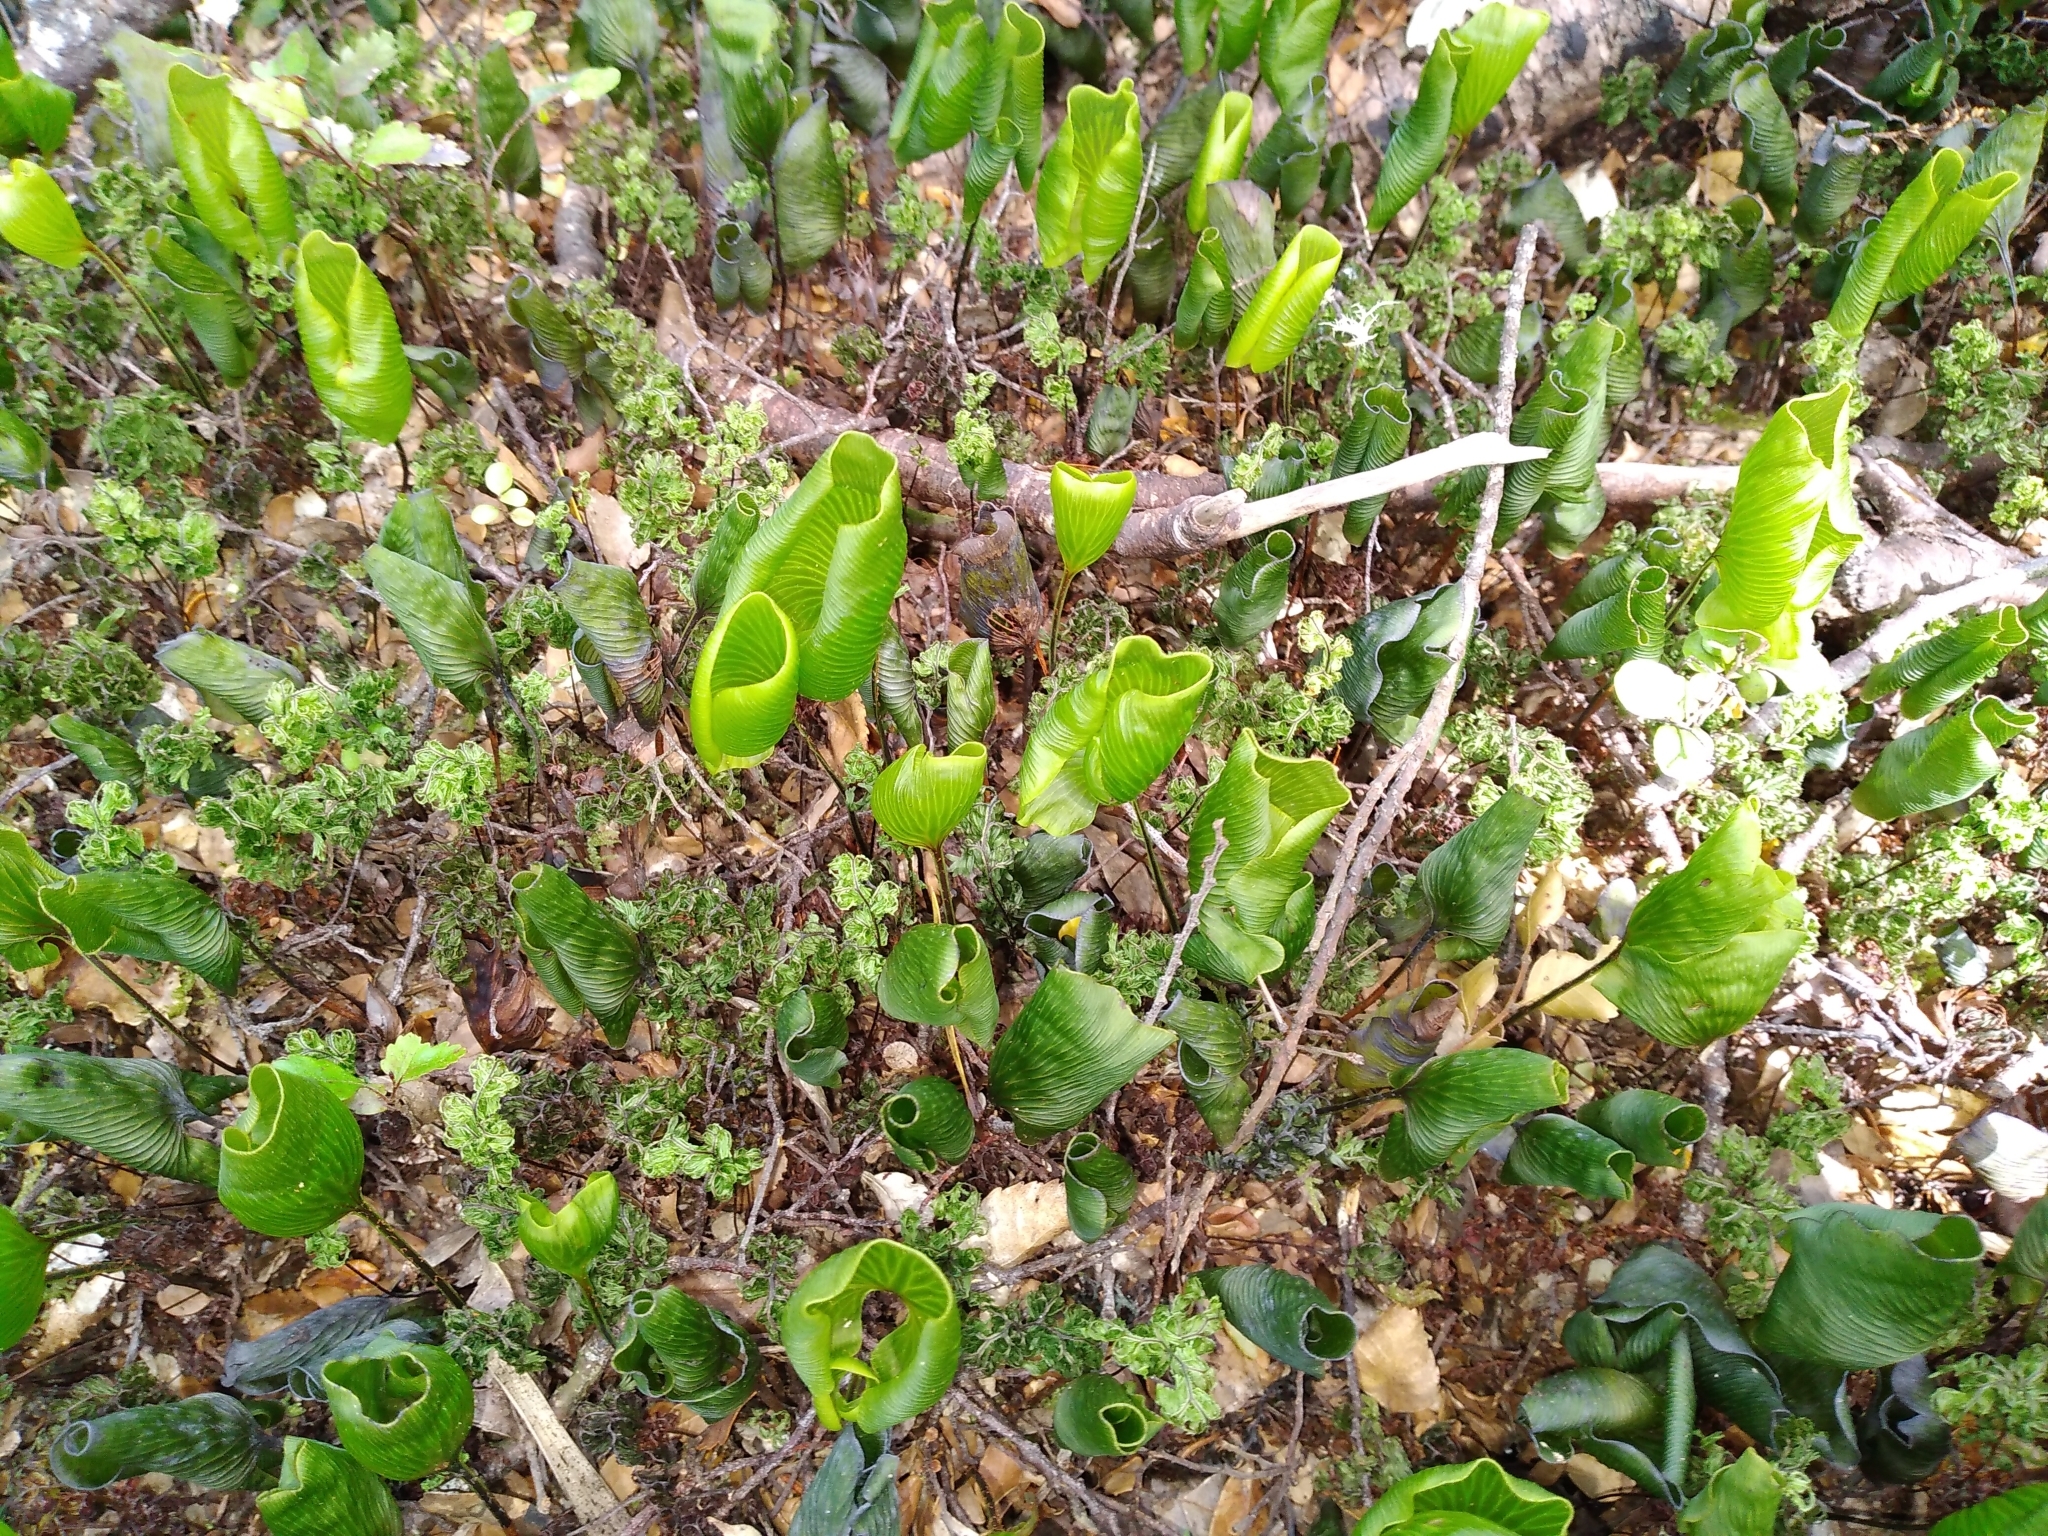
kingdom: Plantae
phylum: Tracheophyta
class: Polypodiopsida
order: Hymenophyllales
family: Hymenophyllaceae
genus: Hymenophyllum
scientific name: Hymenophyllum nephrophyllum
